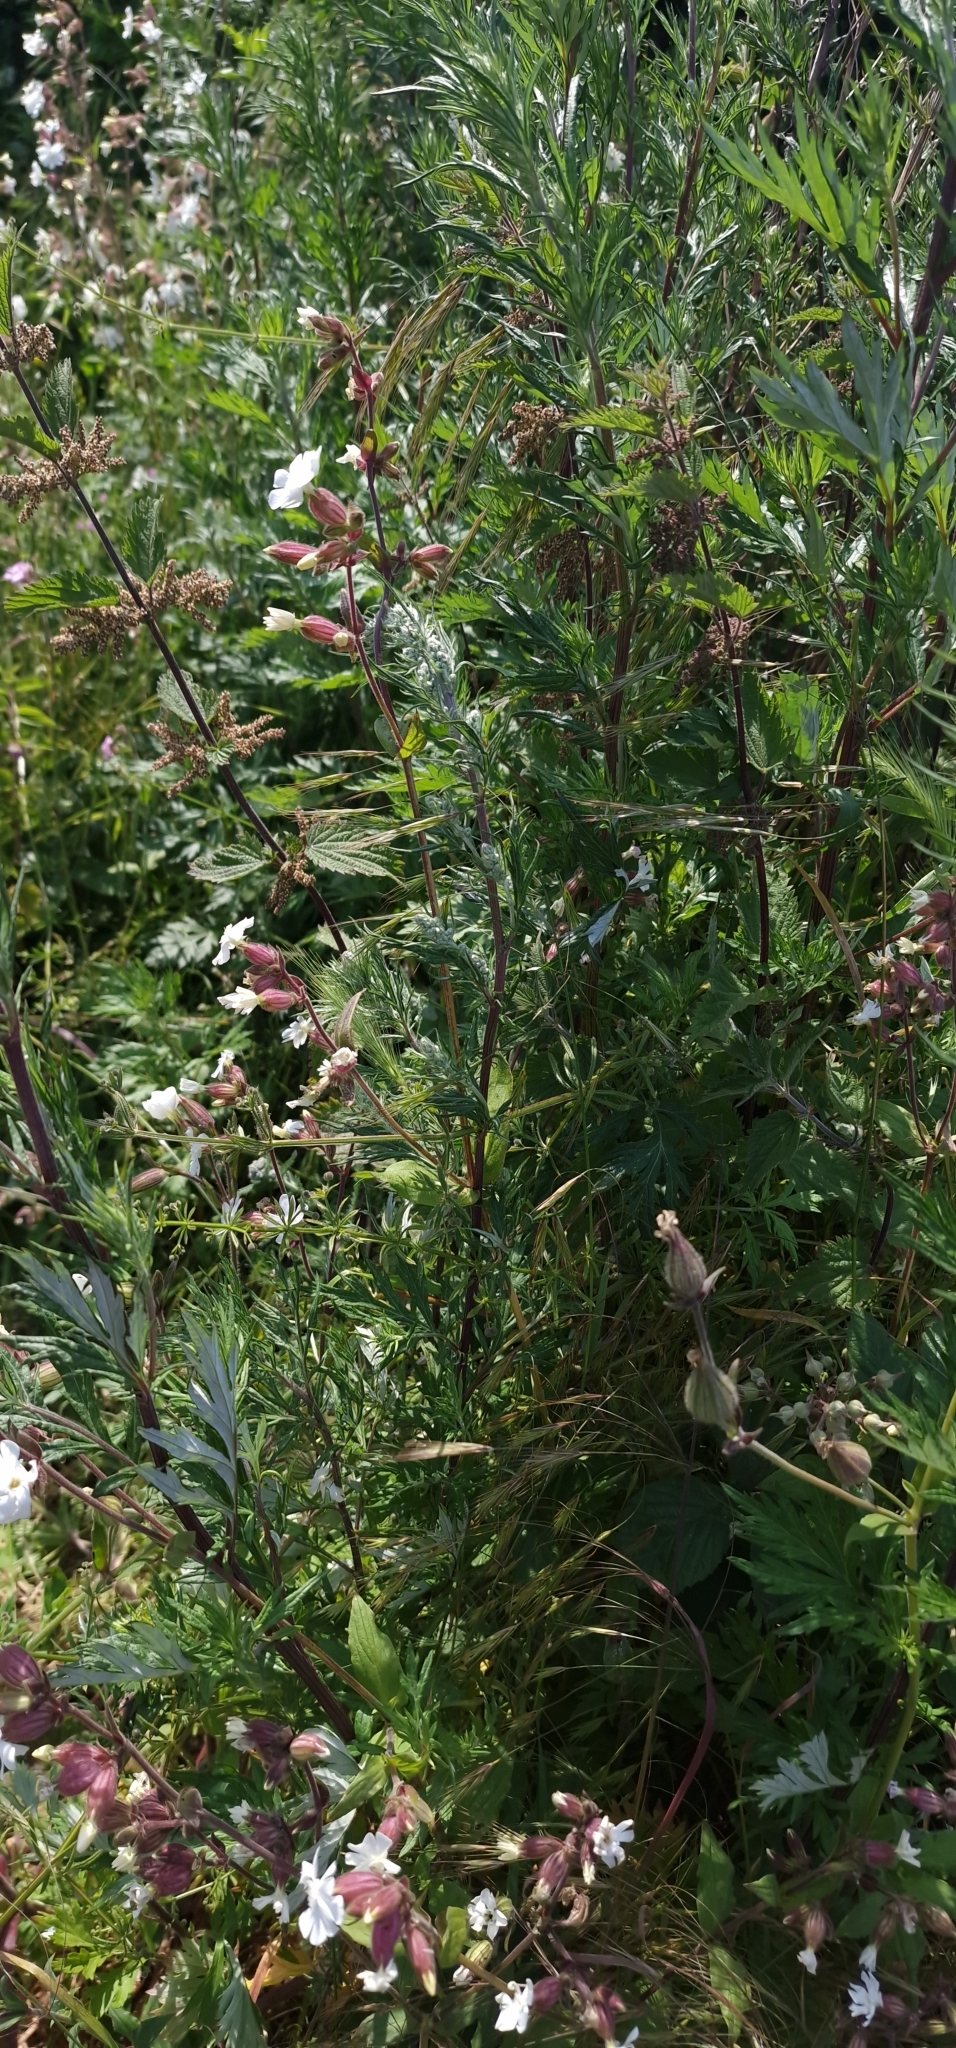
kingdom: Plantae
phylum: Tracheophyta
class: Magnoliopsida
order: Asterales
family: Asteraceae
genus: Artemisia
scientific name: Artemisia vulgaris
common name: Mugwort
